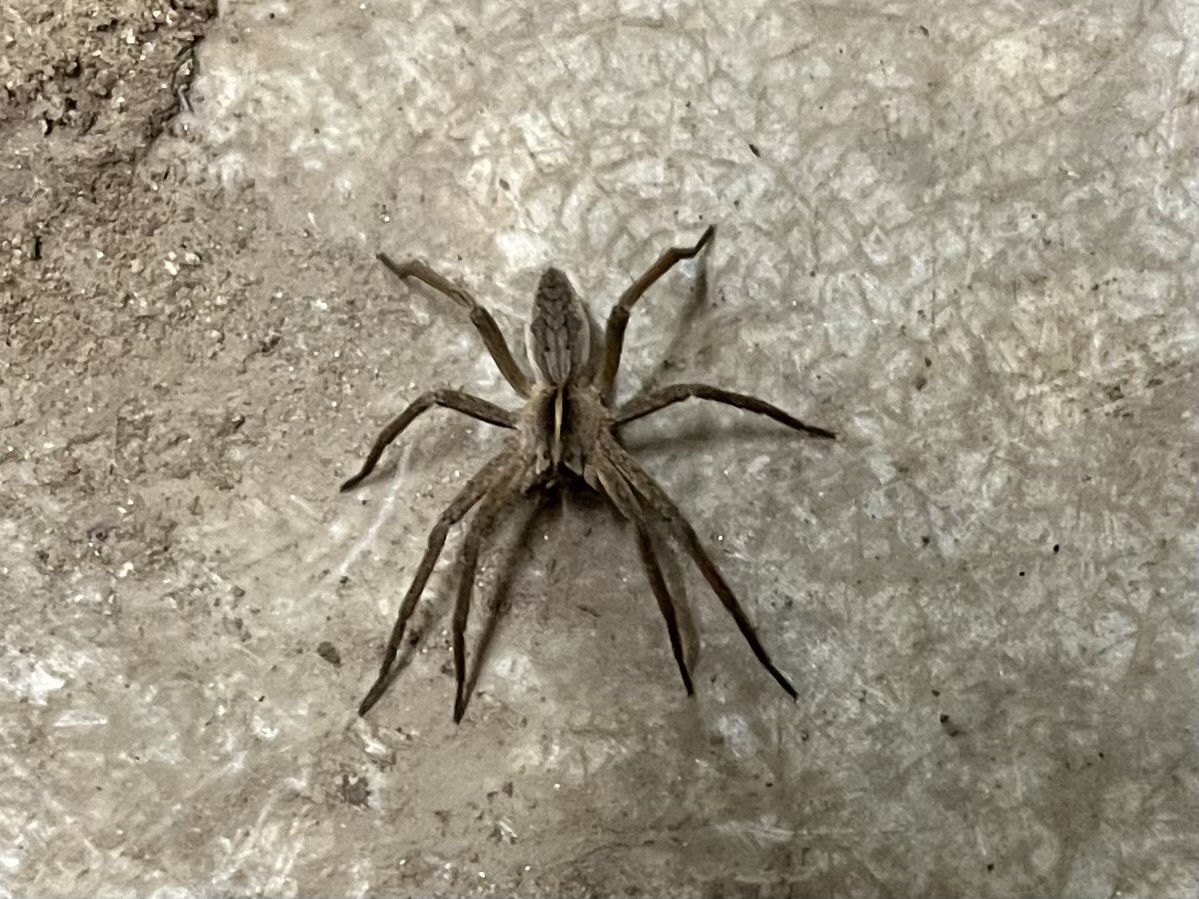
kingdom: Animalia
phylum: Arthropoda
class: Arachnida
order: Araneae
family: Pisauridae
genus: Pisaura
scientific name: Pisaura mirabilis
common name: Tent spider
